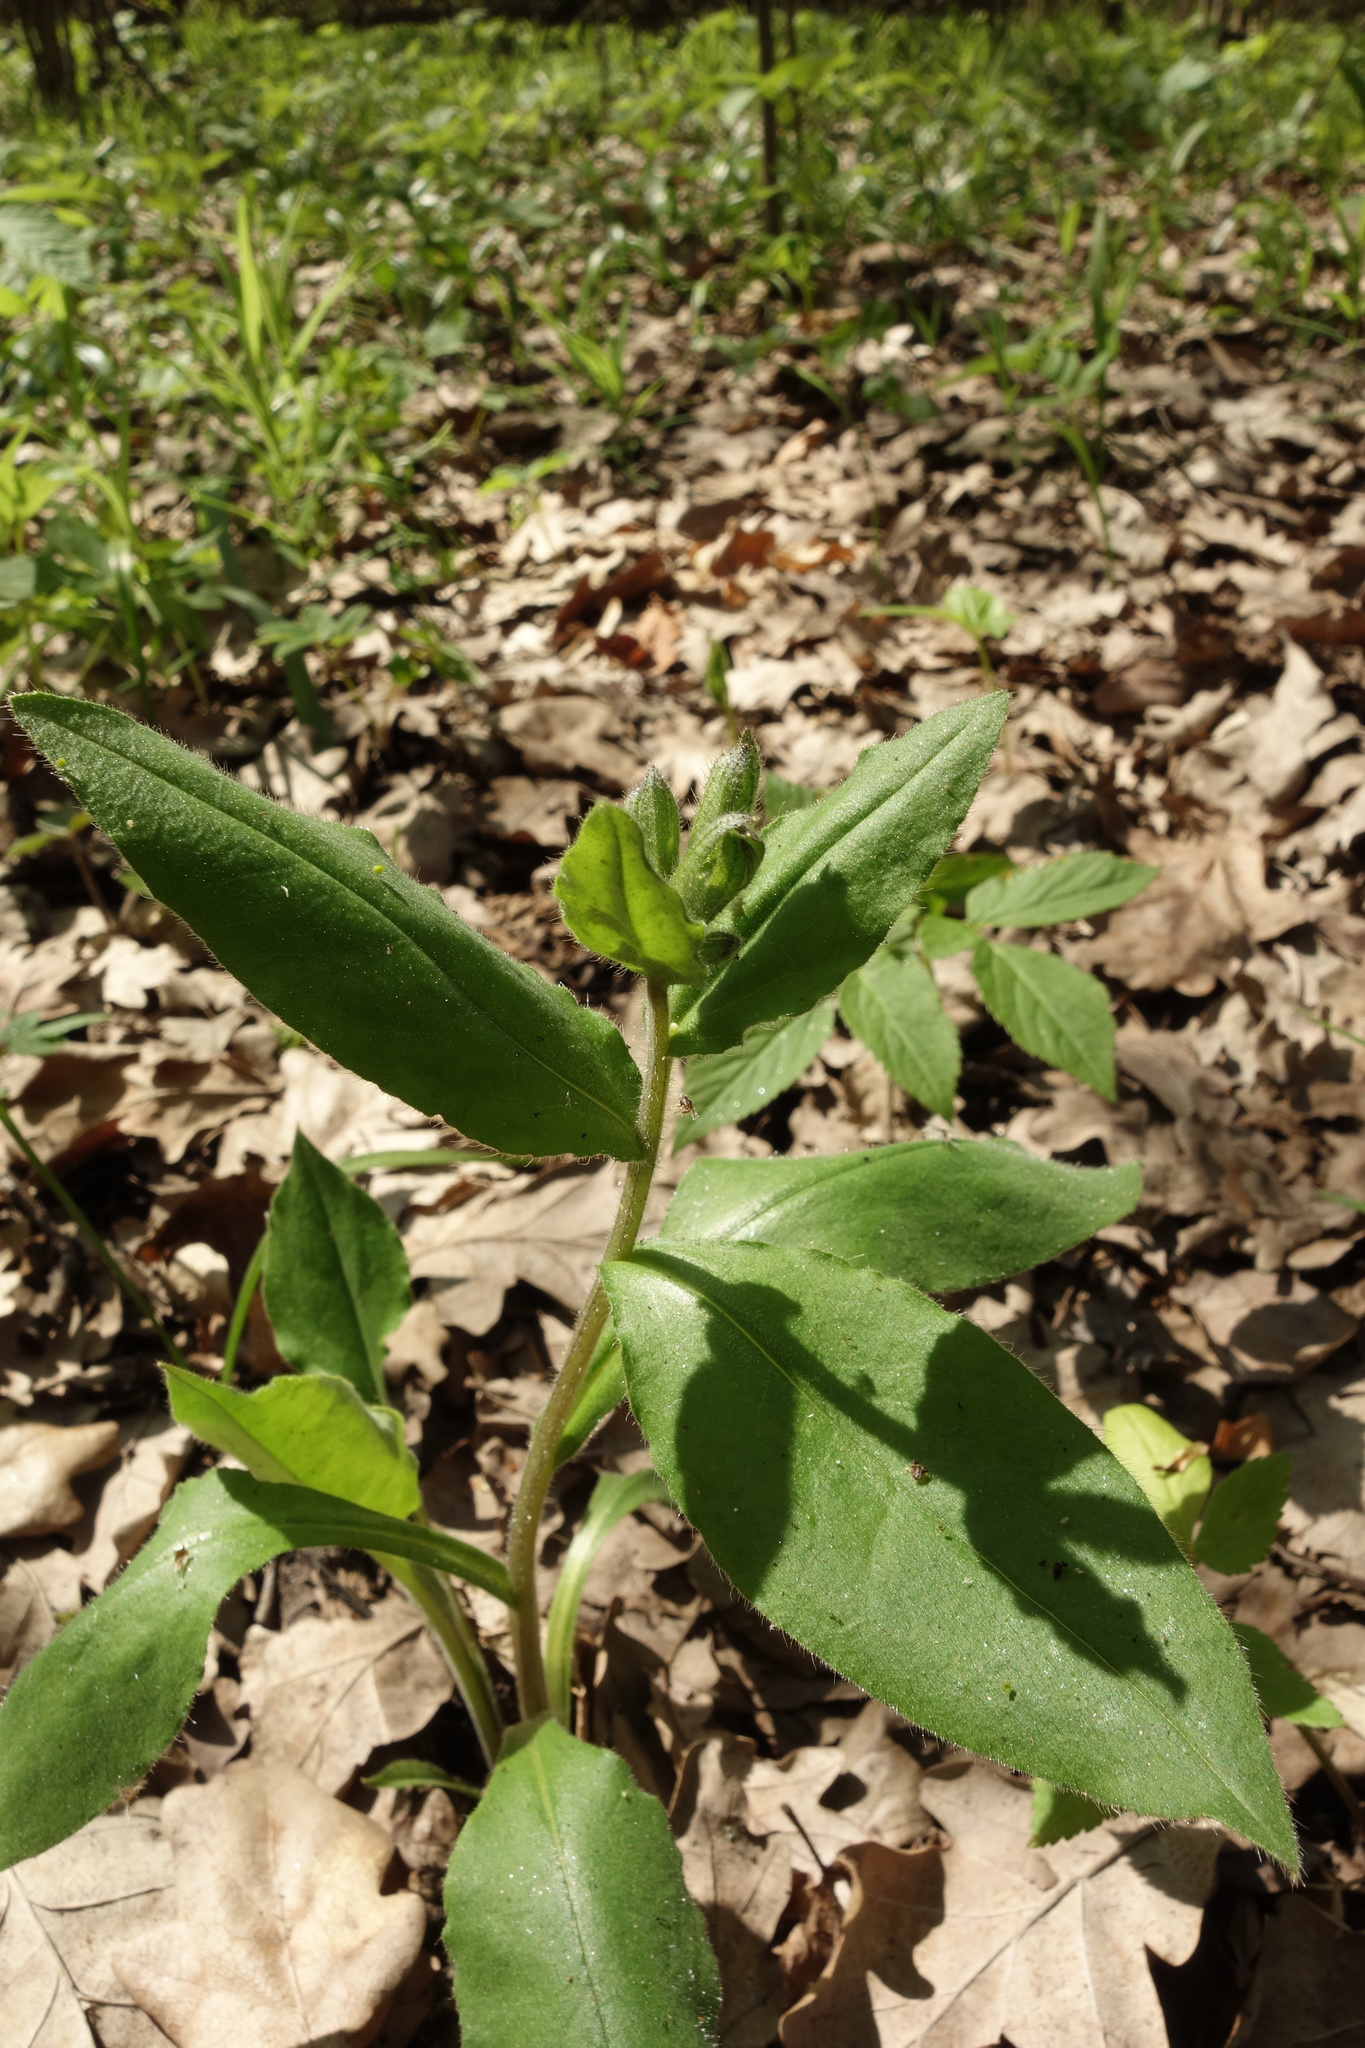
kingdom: Plantae
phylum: Tracheophyta
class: Magnoliopsida
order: Boraginales
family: Boraginaceae
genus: Pulmonaria
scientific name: Pulmonaria obscura
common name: Suffolk lungwort
